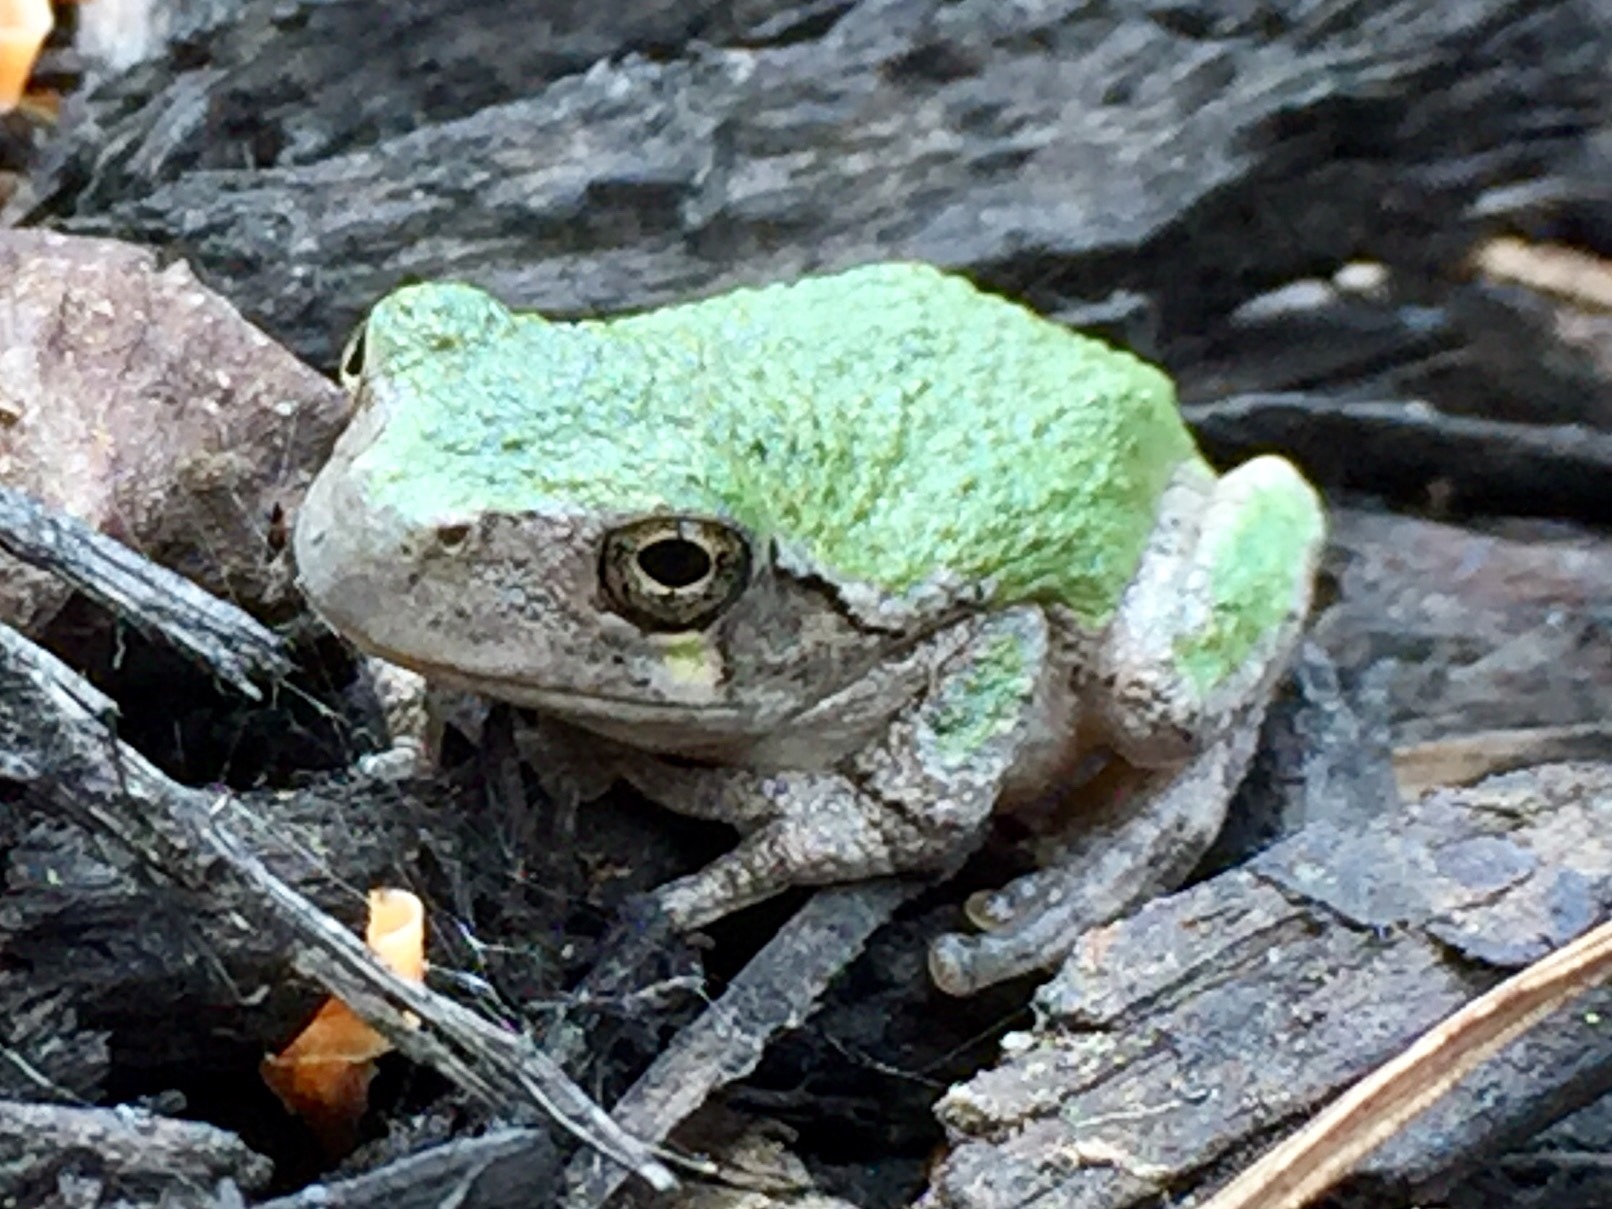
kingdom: Animalia
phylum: Chordata
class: Amphibia
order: Anura
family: Hylidae
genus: Dryophytes
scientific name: Dryophytes versicolor
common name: Gray treefrog
